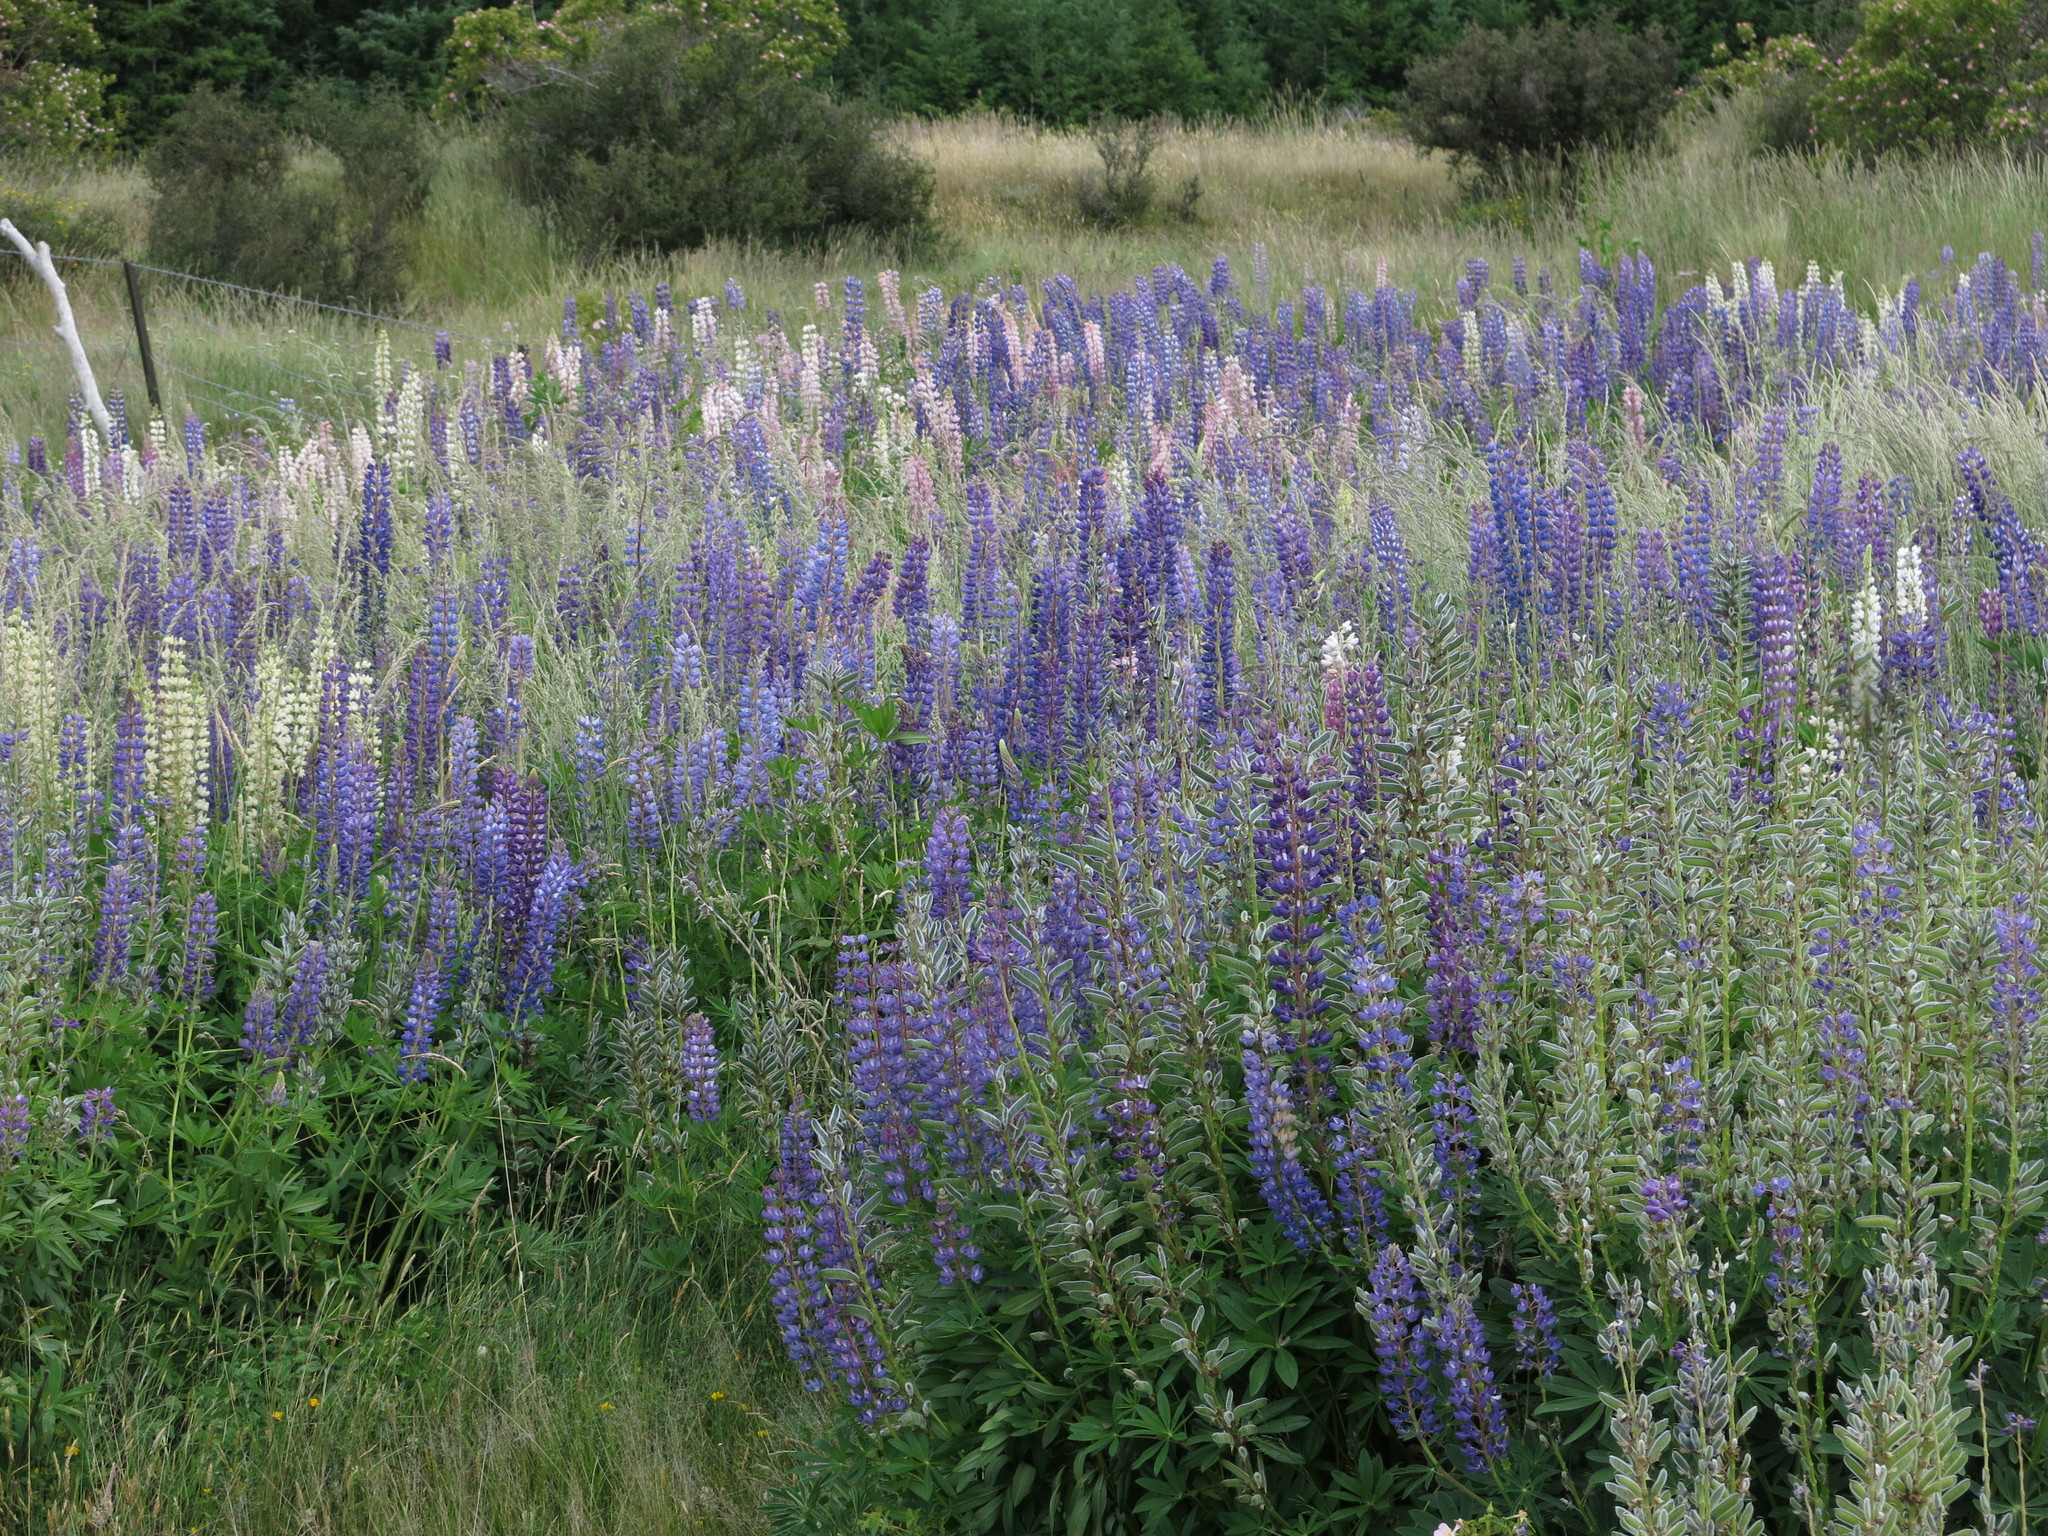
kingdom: Plantae
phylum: Tracheophyta
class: Magnoliopsida
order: Fabales
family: Fabaceae
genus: Lupinus
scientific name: Lupinus polyphyllus
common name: Garden lupin
